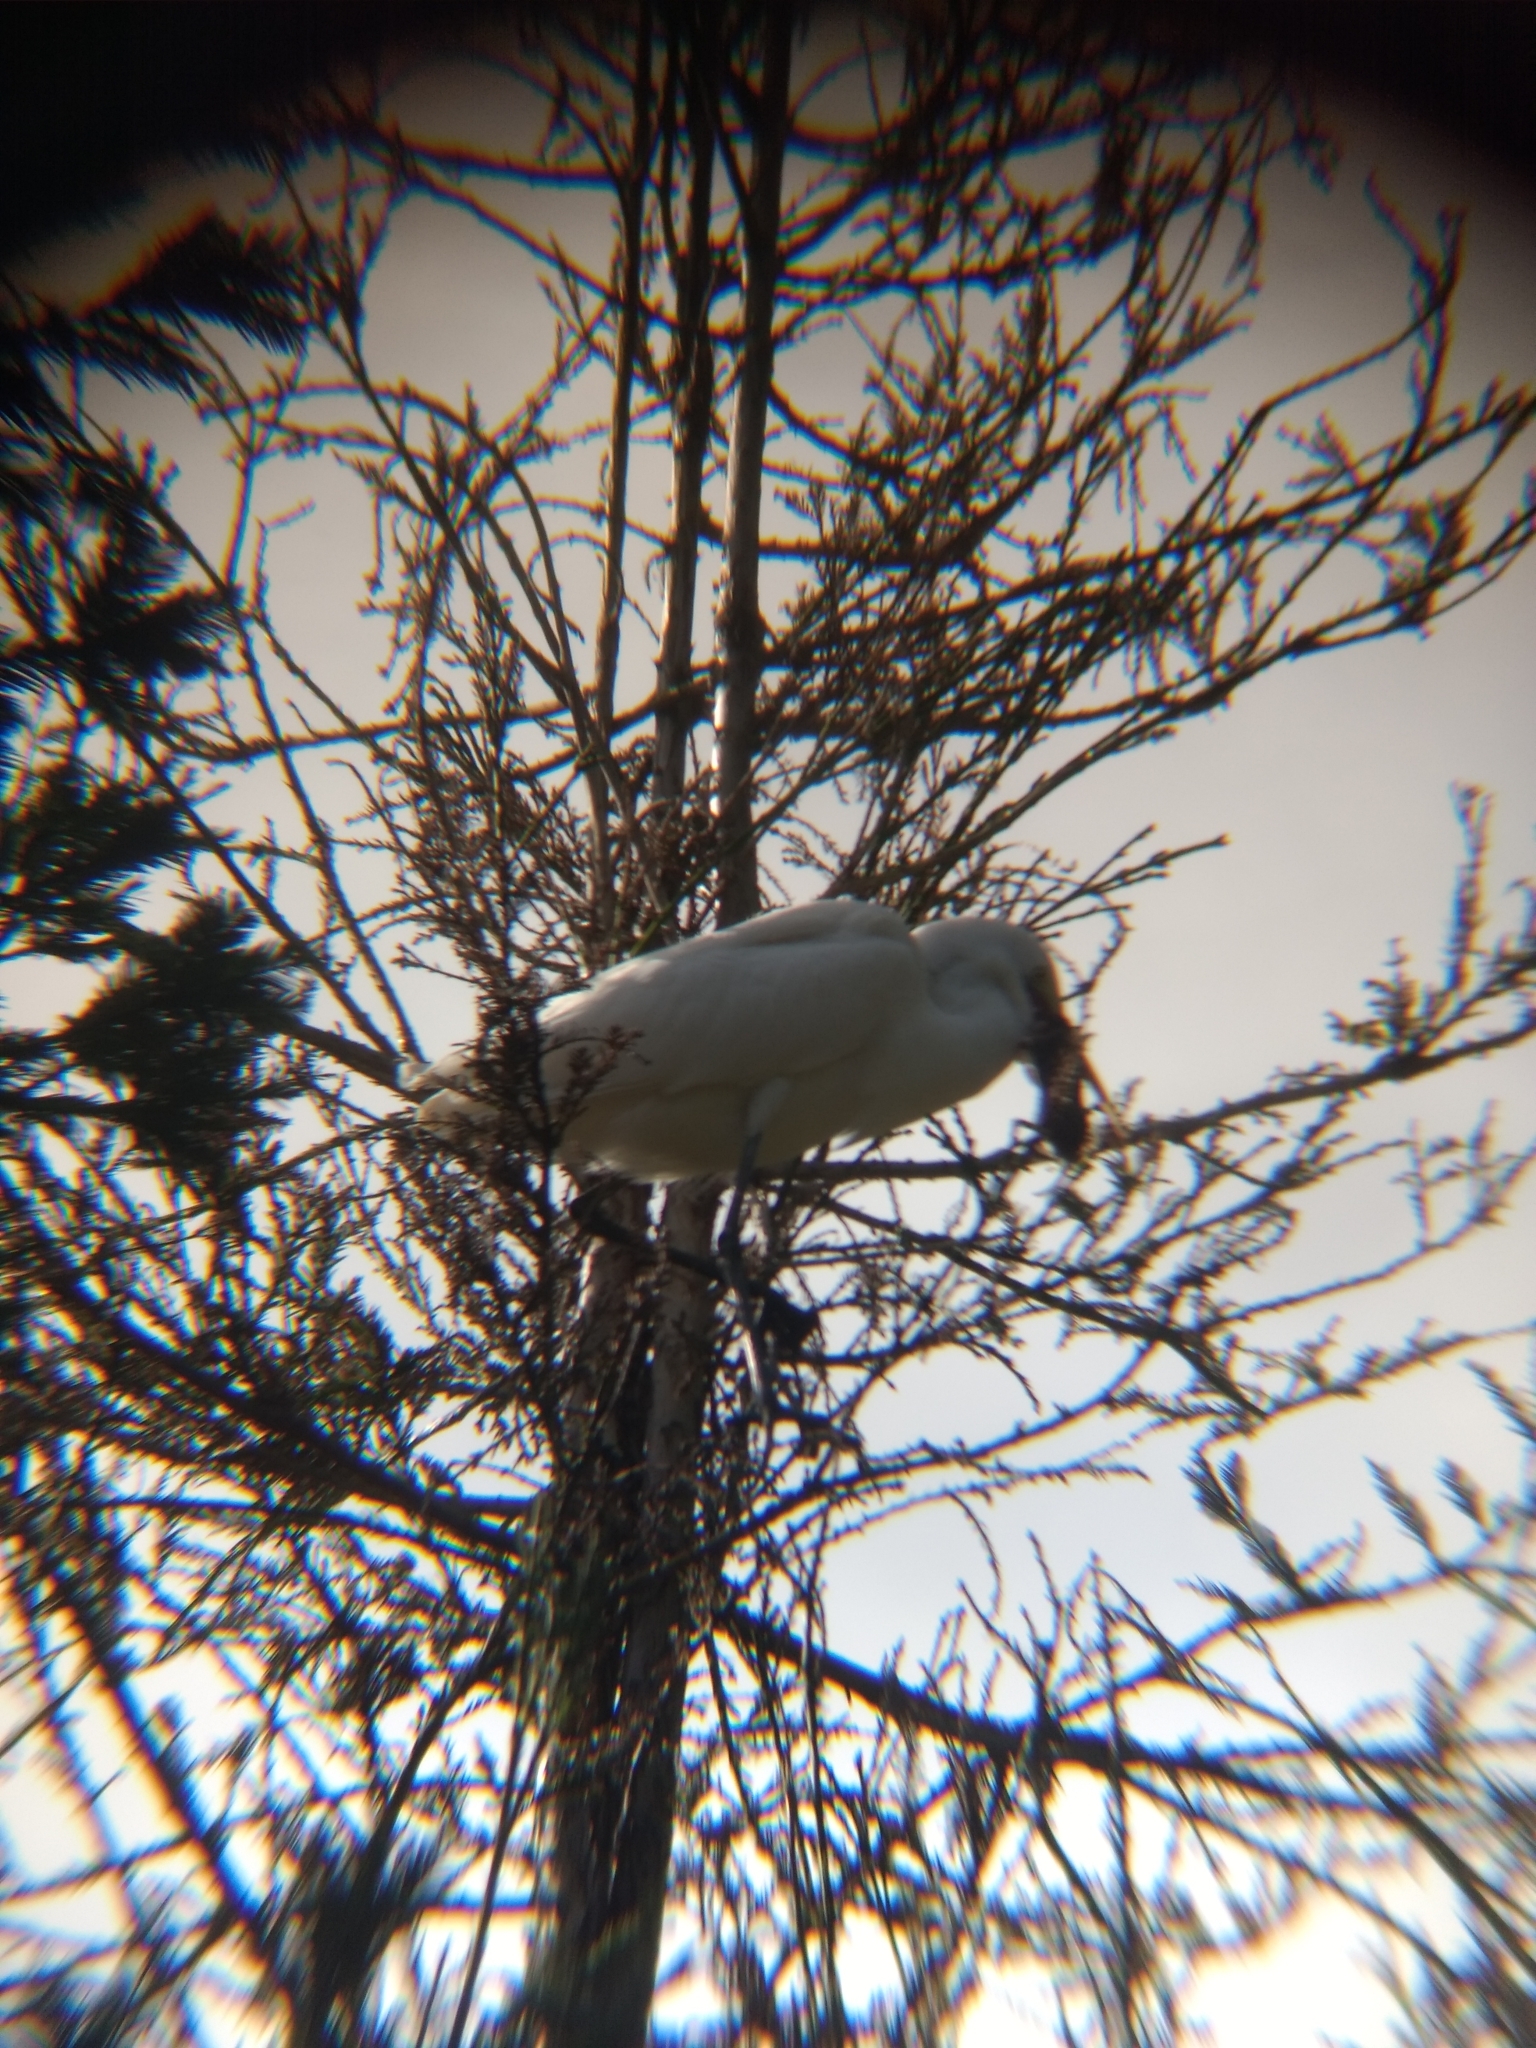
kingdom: Animalia
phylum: Chordata
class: Aves
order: Pelecaniformes
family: Ardeidae
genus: Ardea
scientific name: Ardea alba
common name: Great egret
